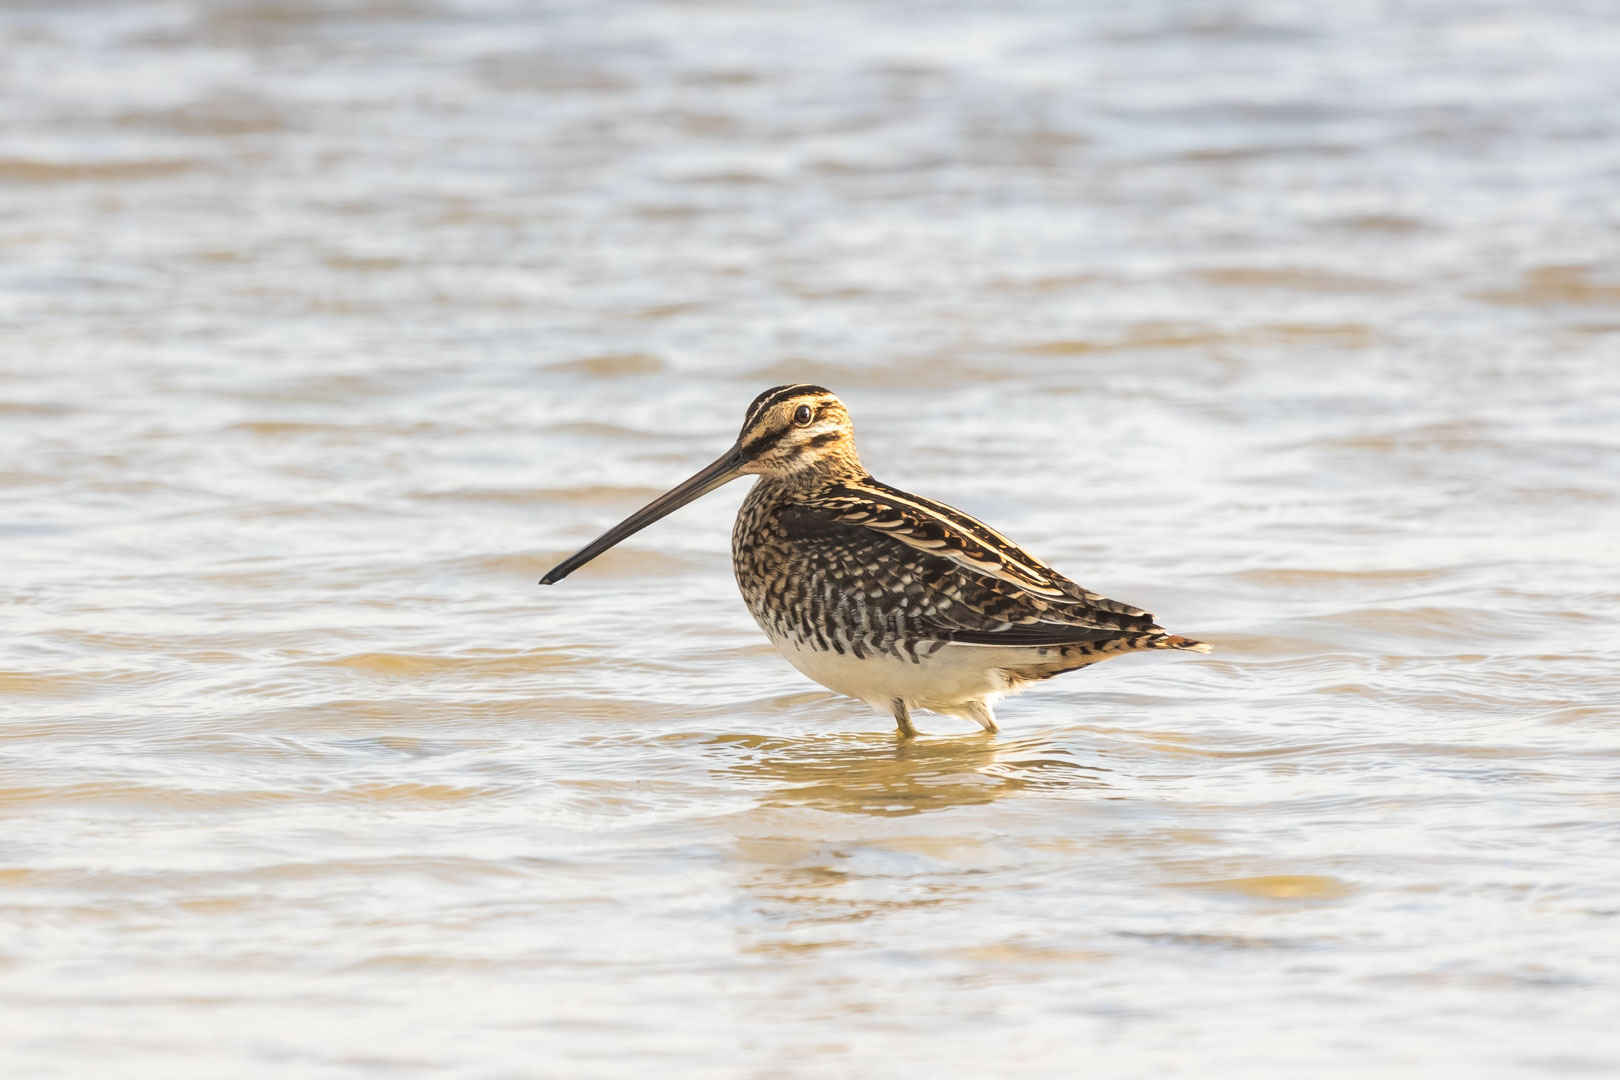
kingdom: Animalia
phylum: Chordata
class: Aves
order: Charadriiformes
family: Scolopacidae
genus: Gallinago
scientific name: Gallinago gallinago
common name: Common snipe
